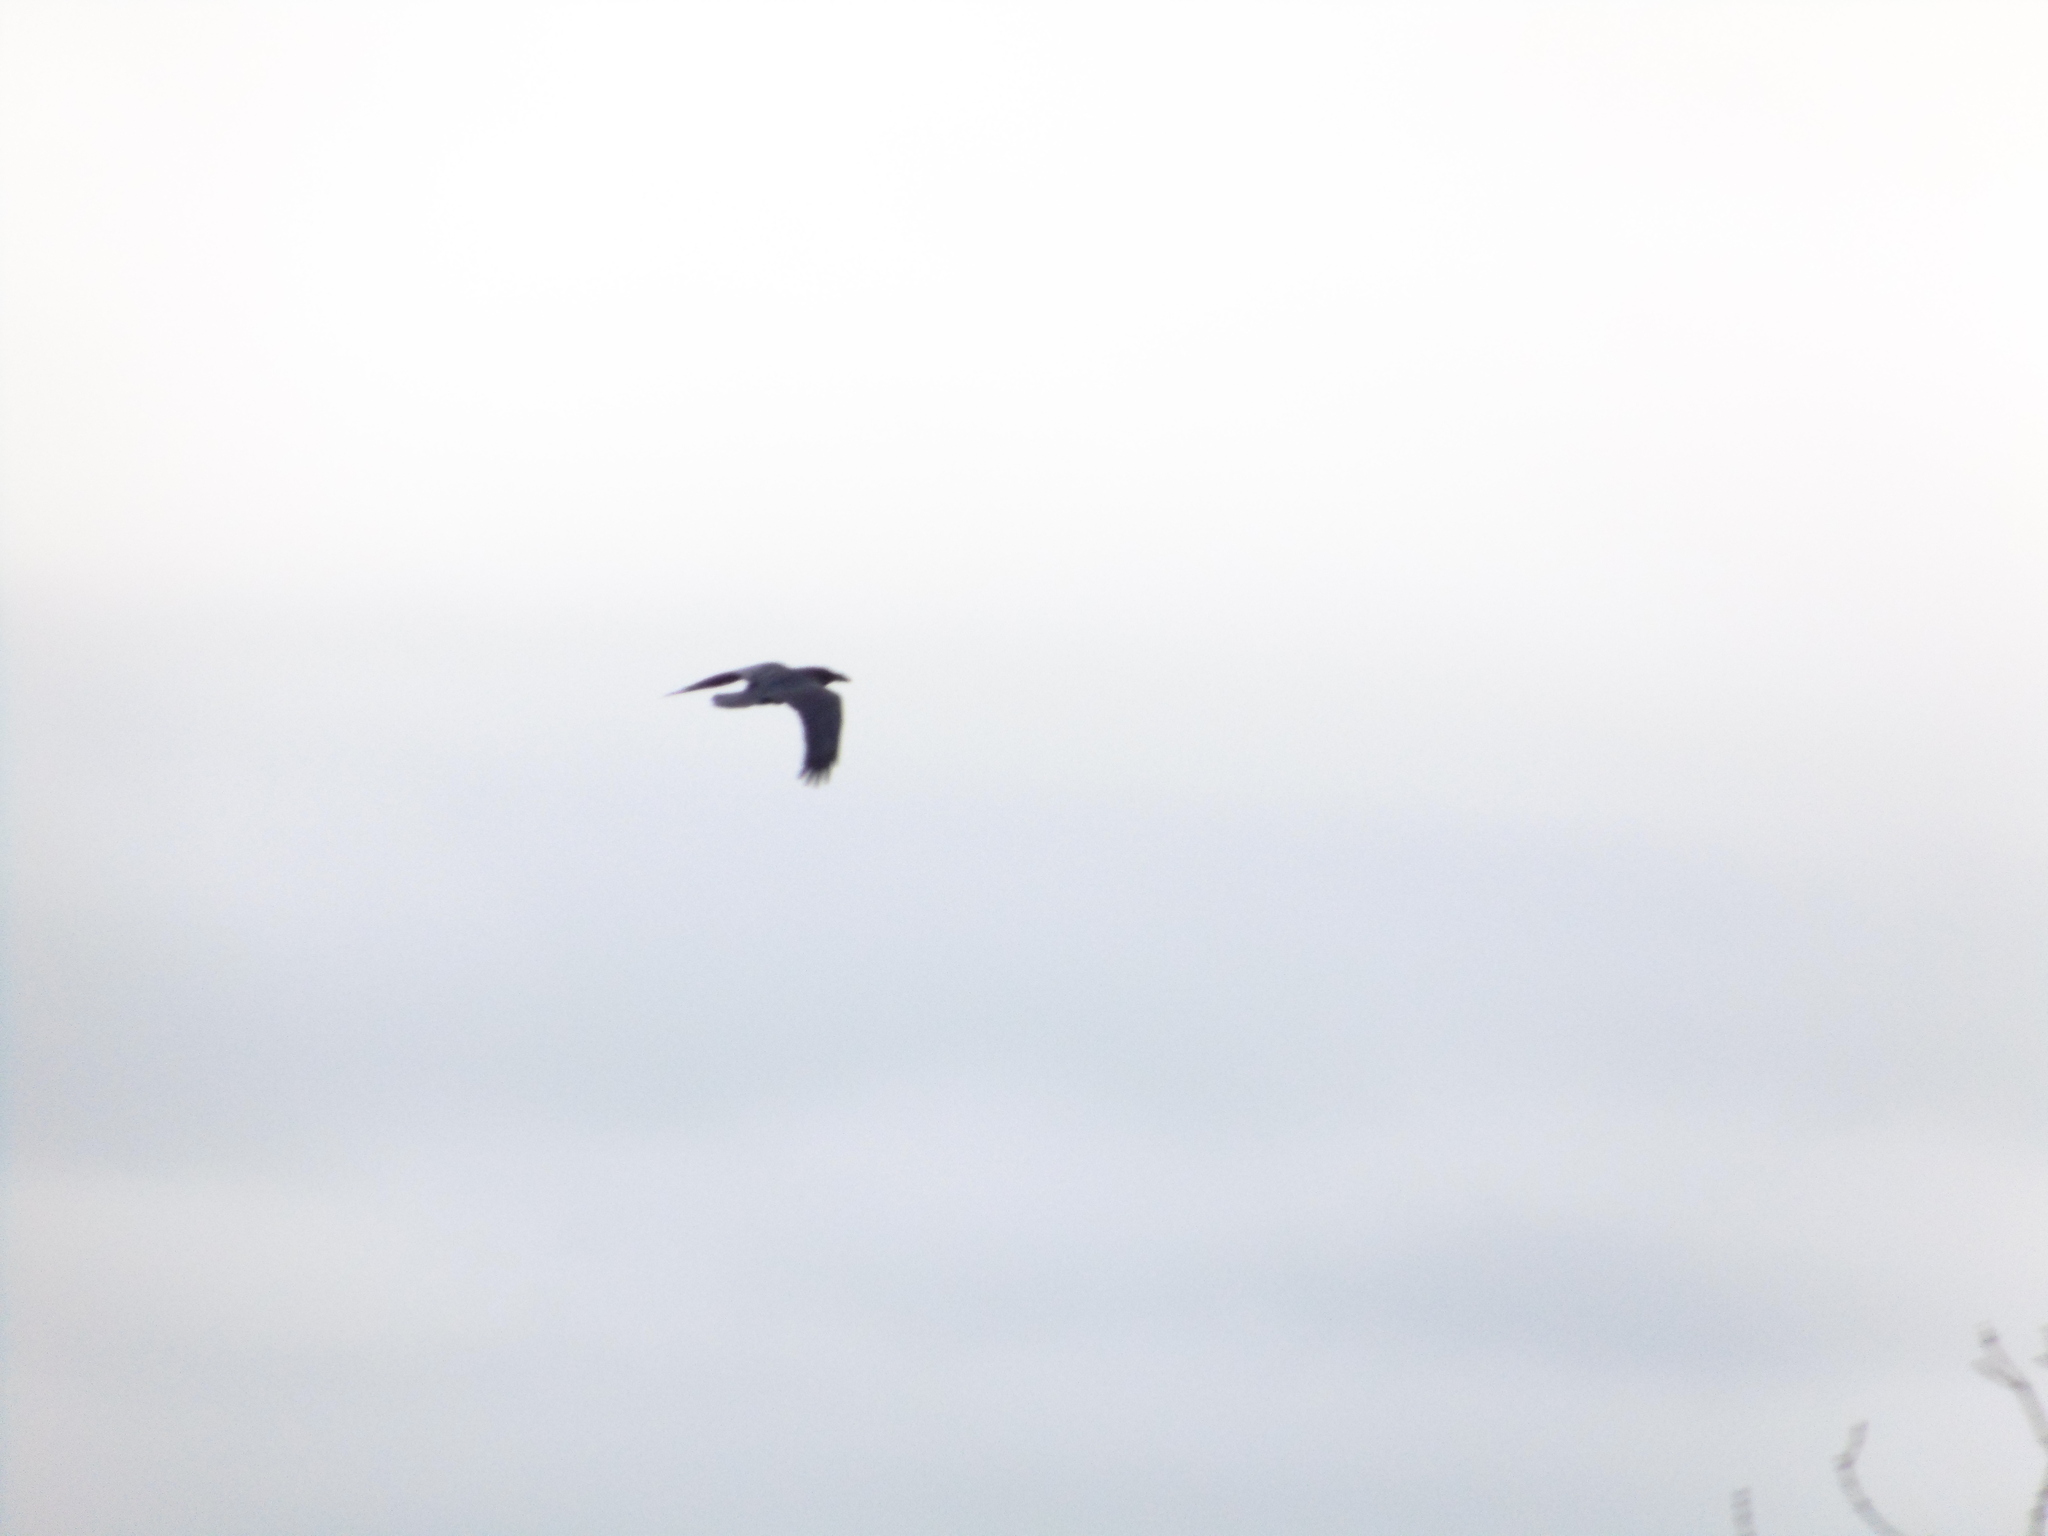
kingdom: Animalia
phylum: Chordata
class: Aves
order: Passeriformes
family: Corvidae
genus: Corvus
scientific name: Corvus corax
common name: Common raven
